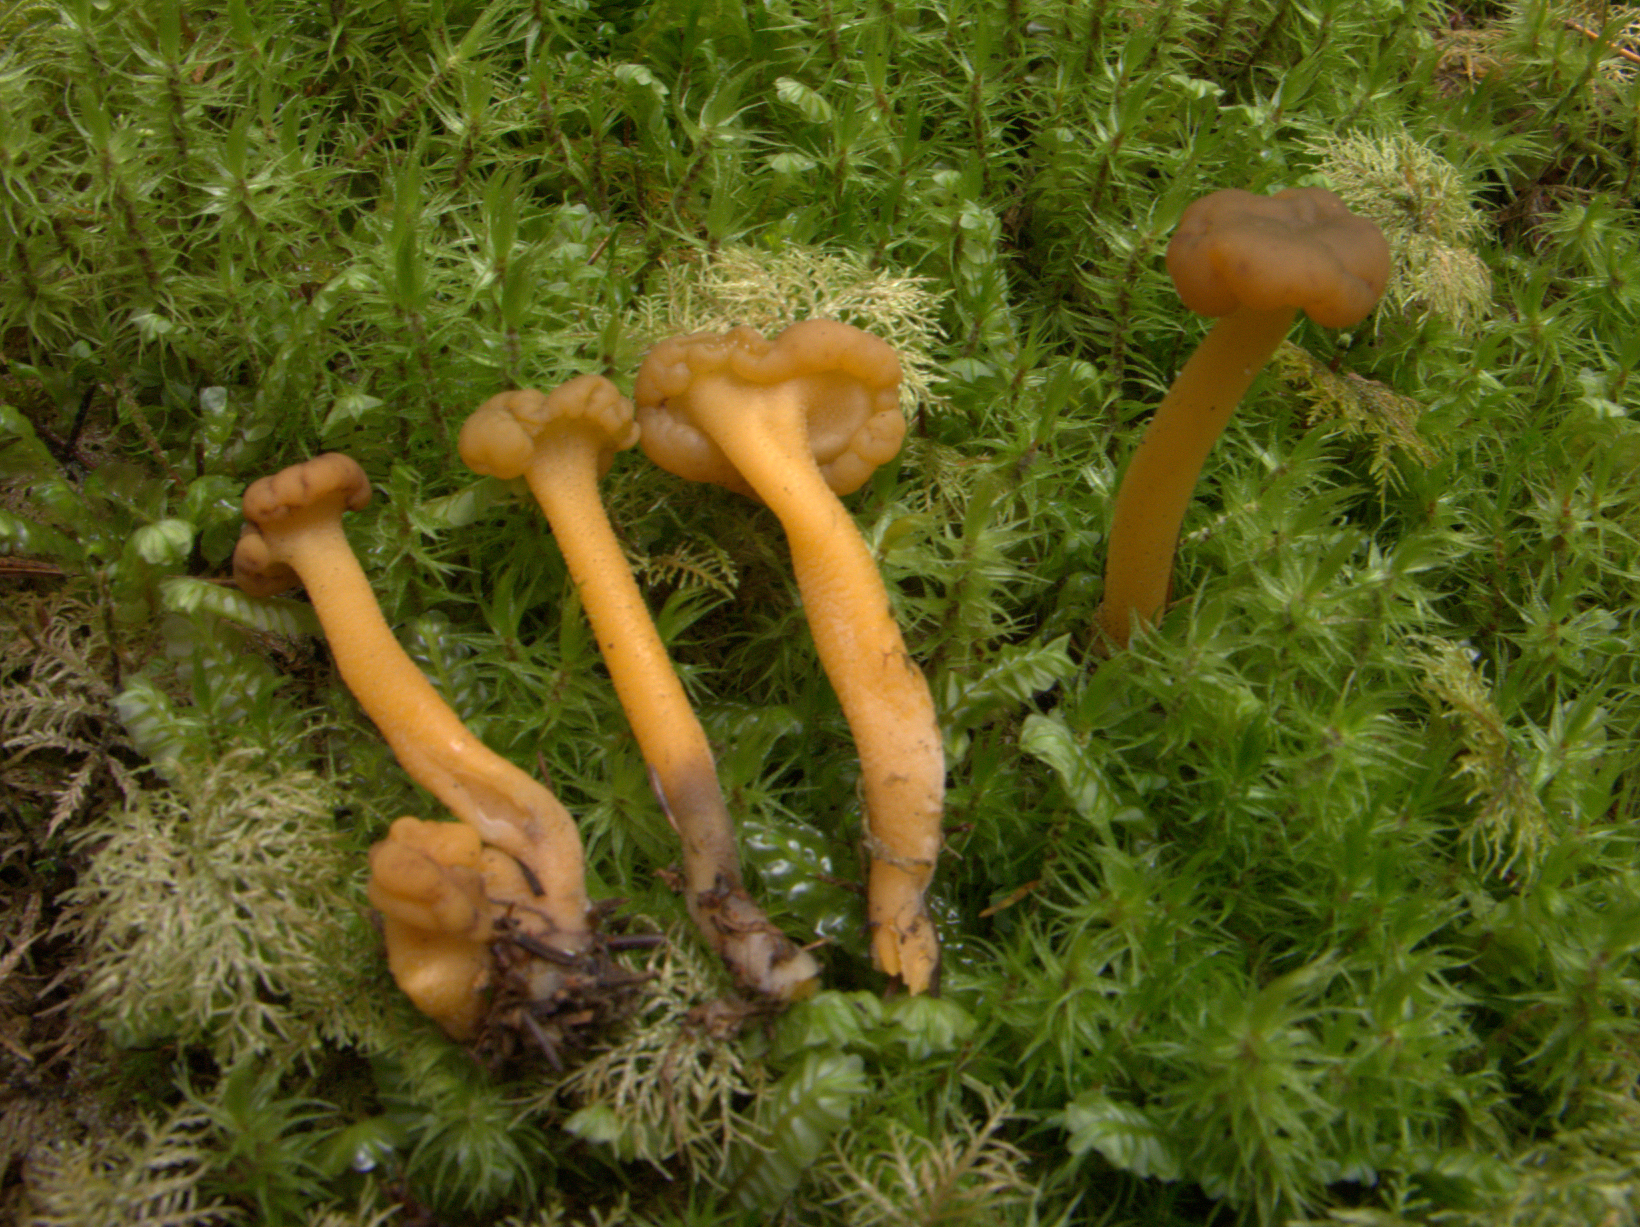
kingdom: Fungi
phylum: Ascomycota
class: Leotiomycetes
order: Leotiales
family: Leotiaceae
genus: Leotia
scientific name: Leotia lubrica
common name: Jellybaby
